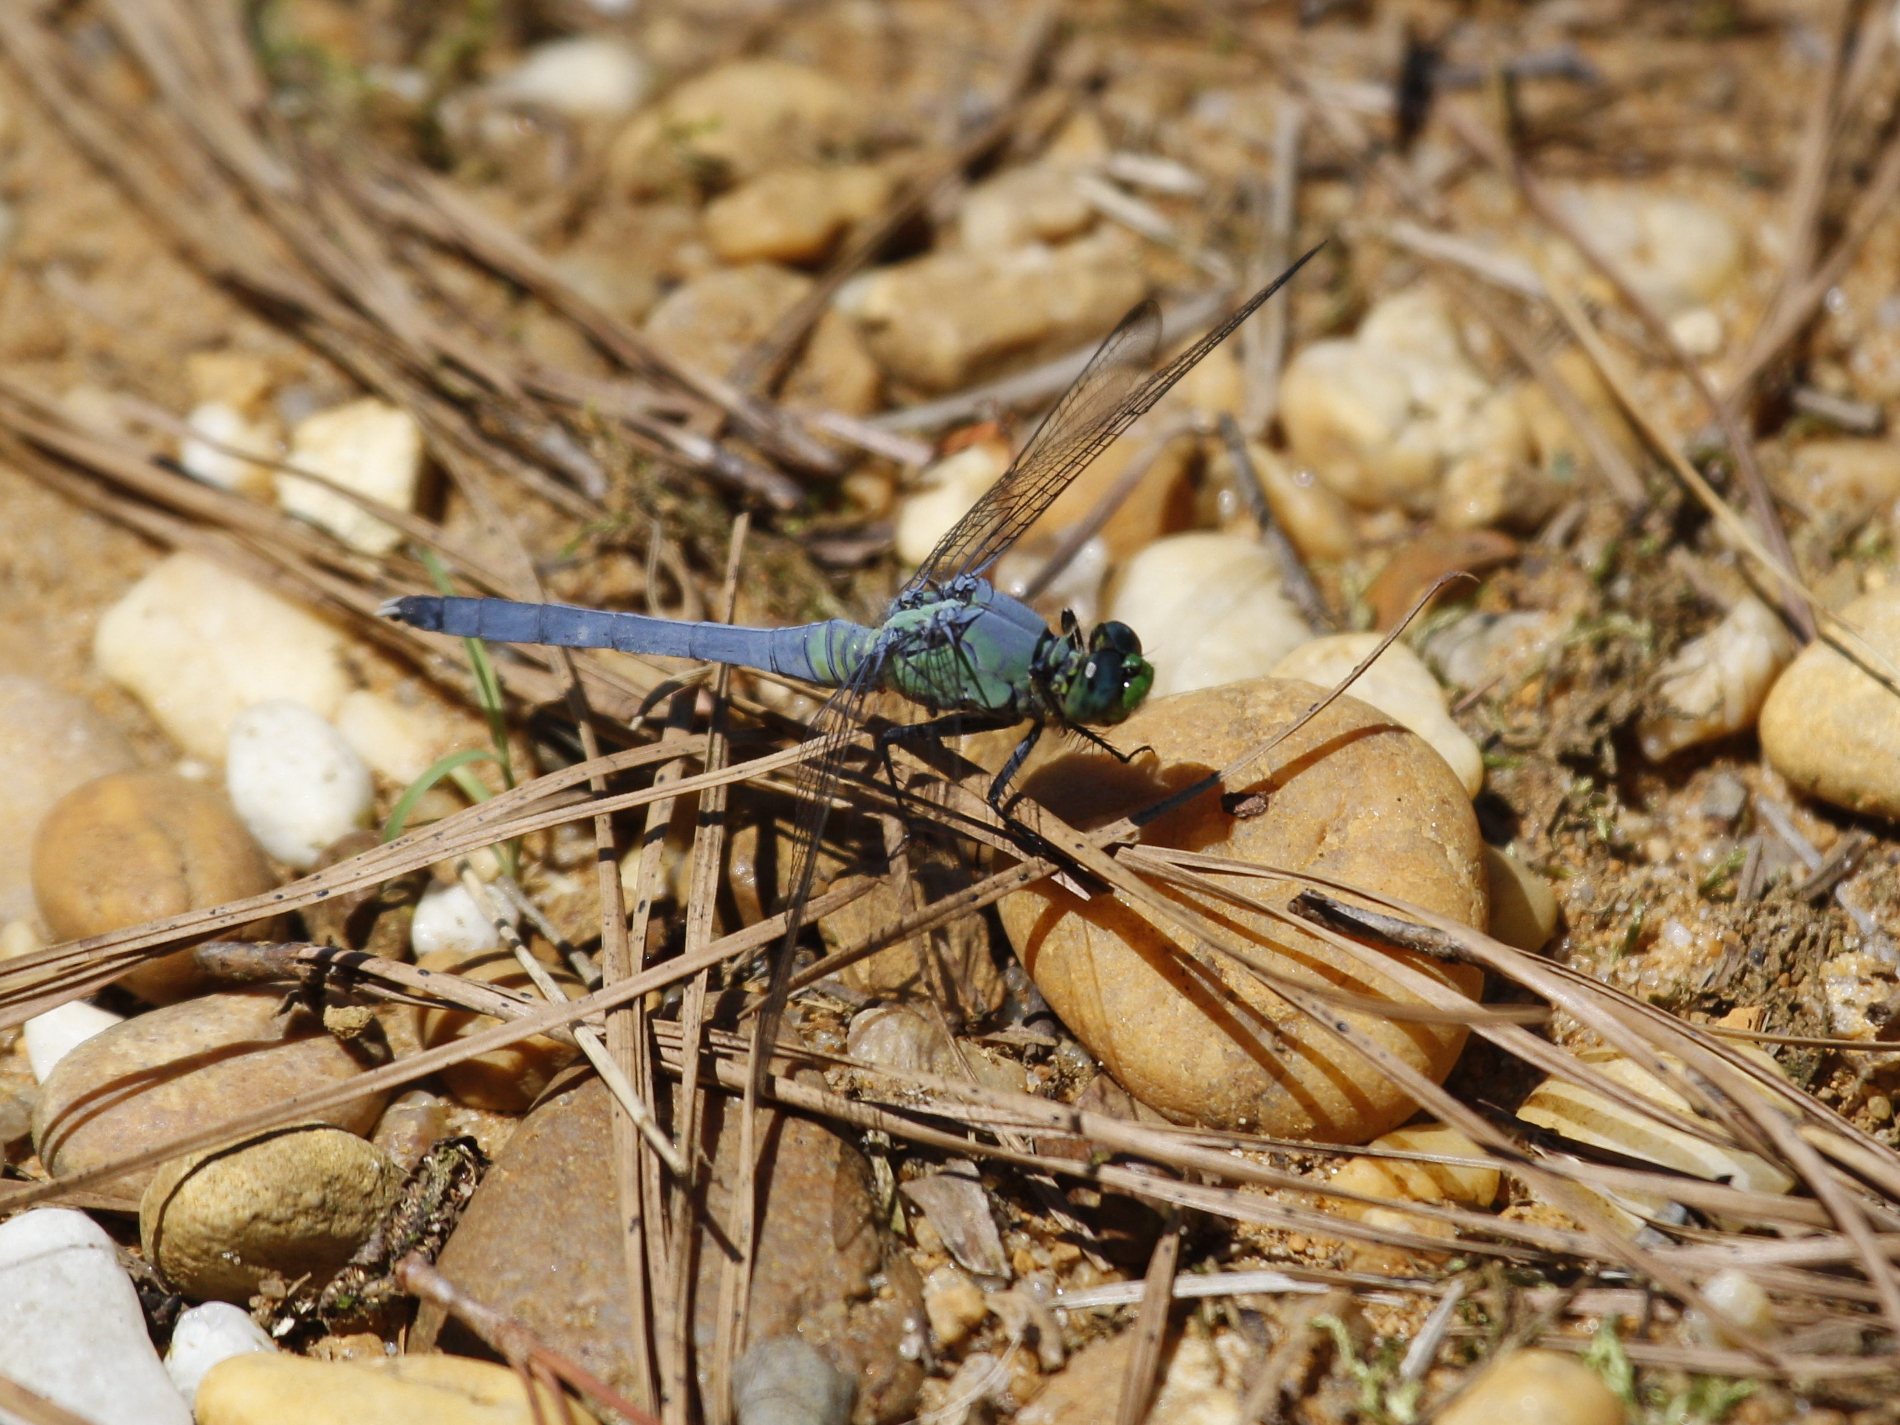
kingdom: Animalia
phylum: Arthropoda
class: Insecta
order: Odonata
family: Libellulidae
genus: Erythemis
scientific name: Erythemis simplicicollis
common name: Eastern pondhawk
